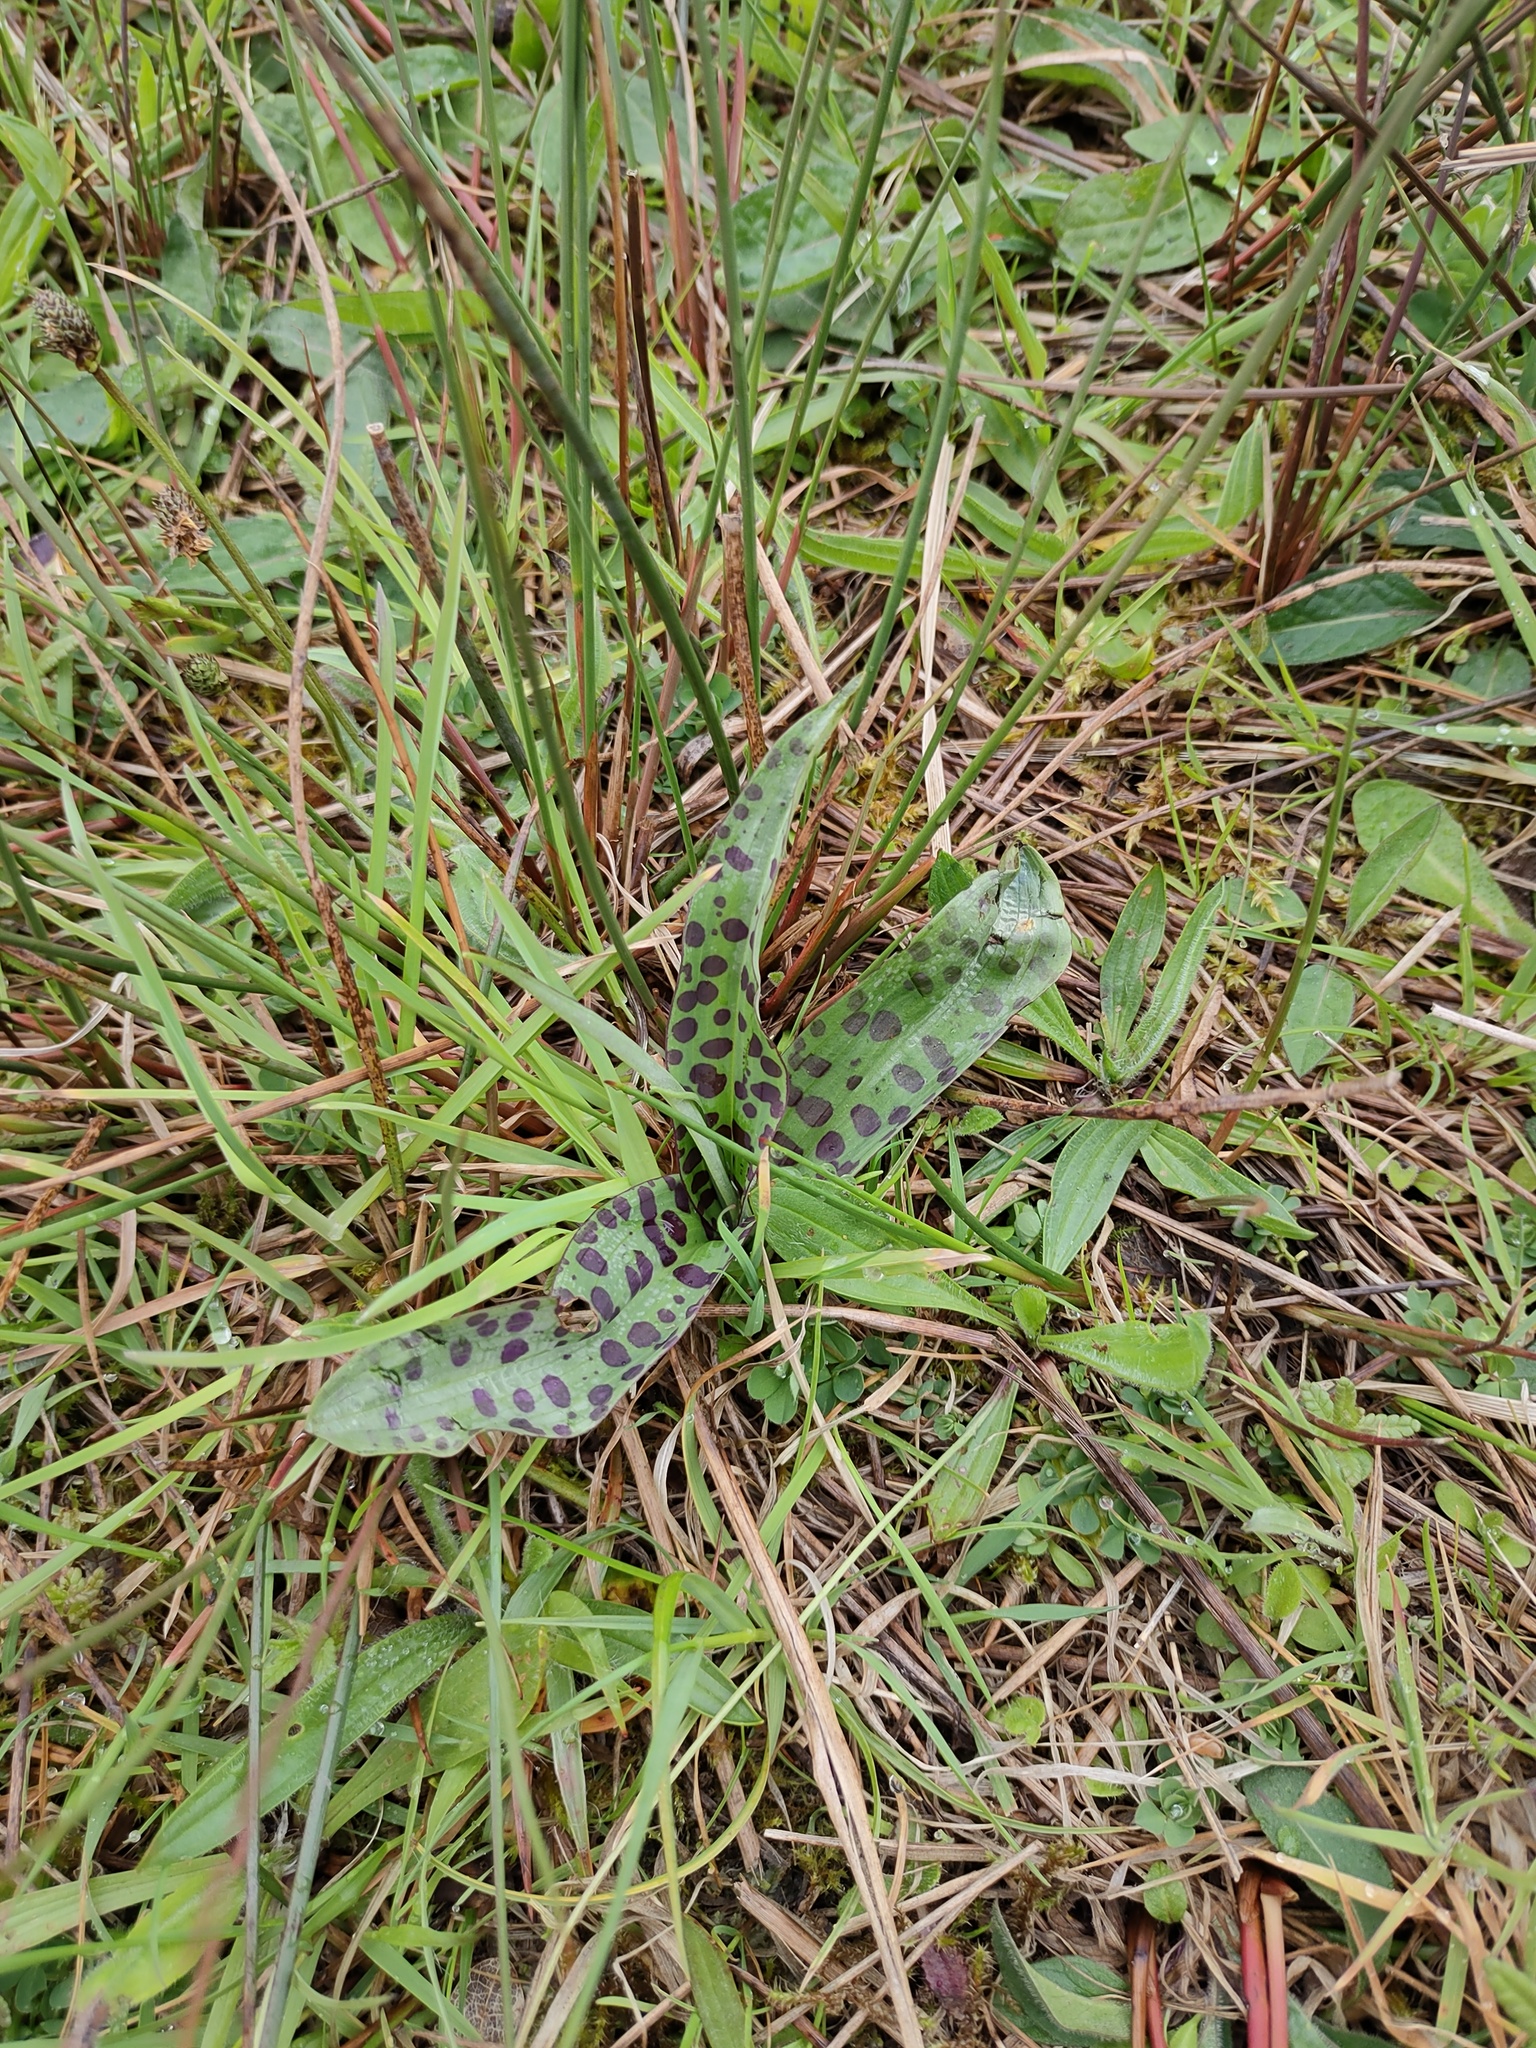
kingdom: Plantae
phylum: Tracheophyta
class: Liliopsida
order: Asparagales
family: Orchidaceae
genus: Dactylorhiza
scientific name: Dactylorhiza maculata
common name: Heath spotted-orchid
